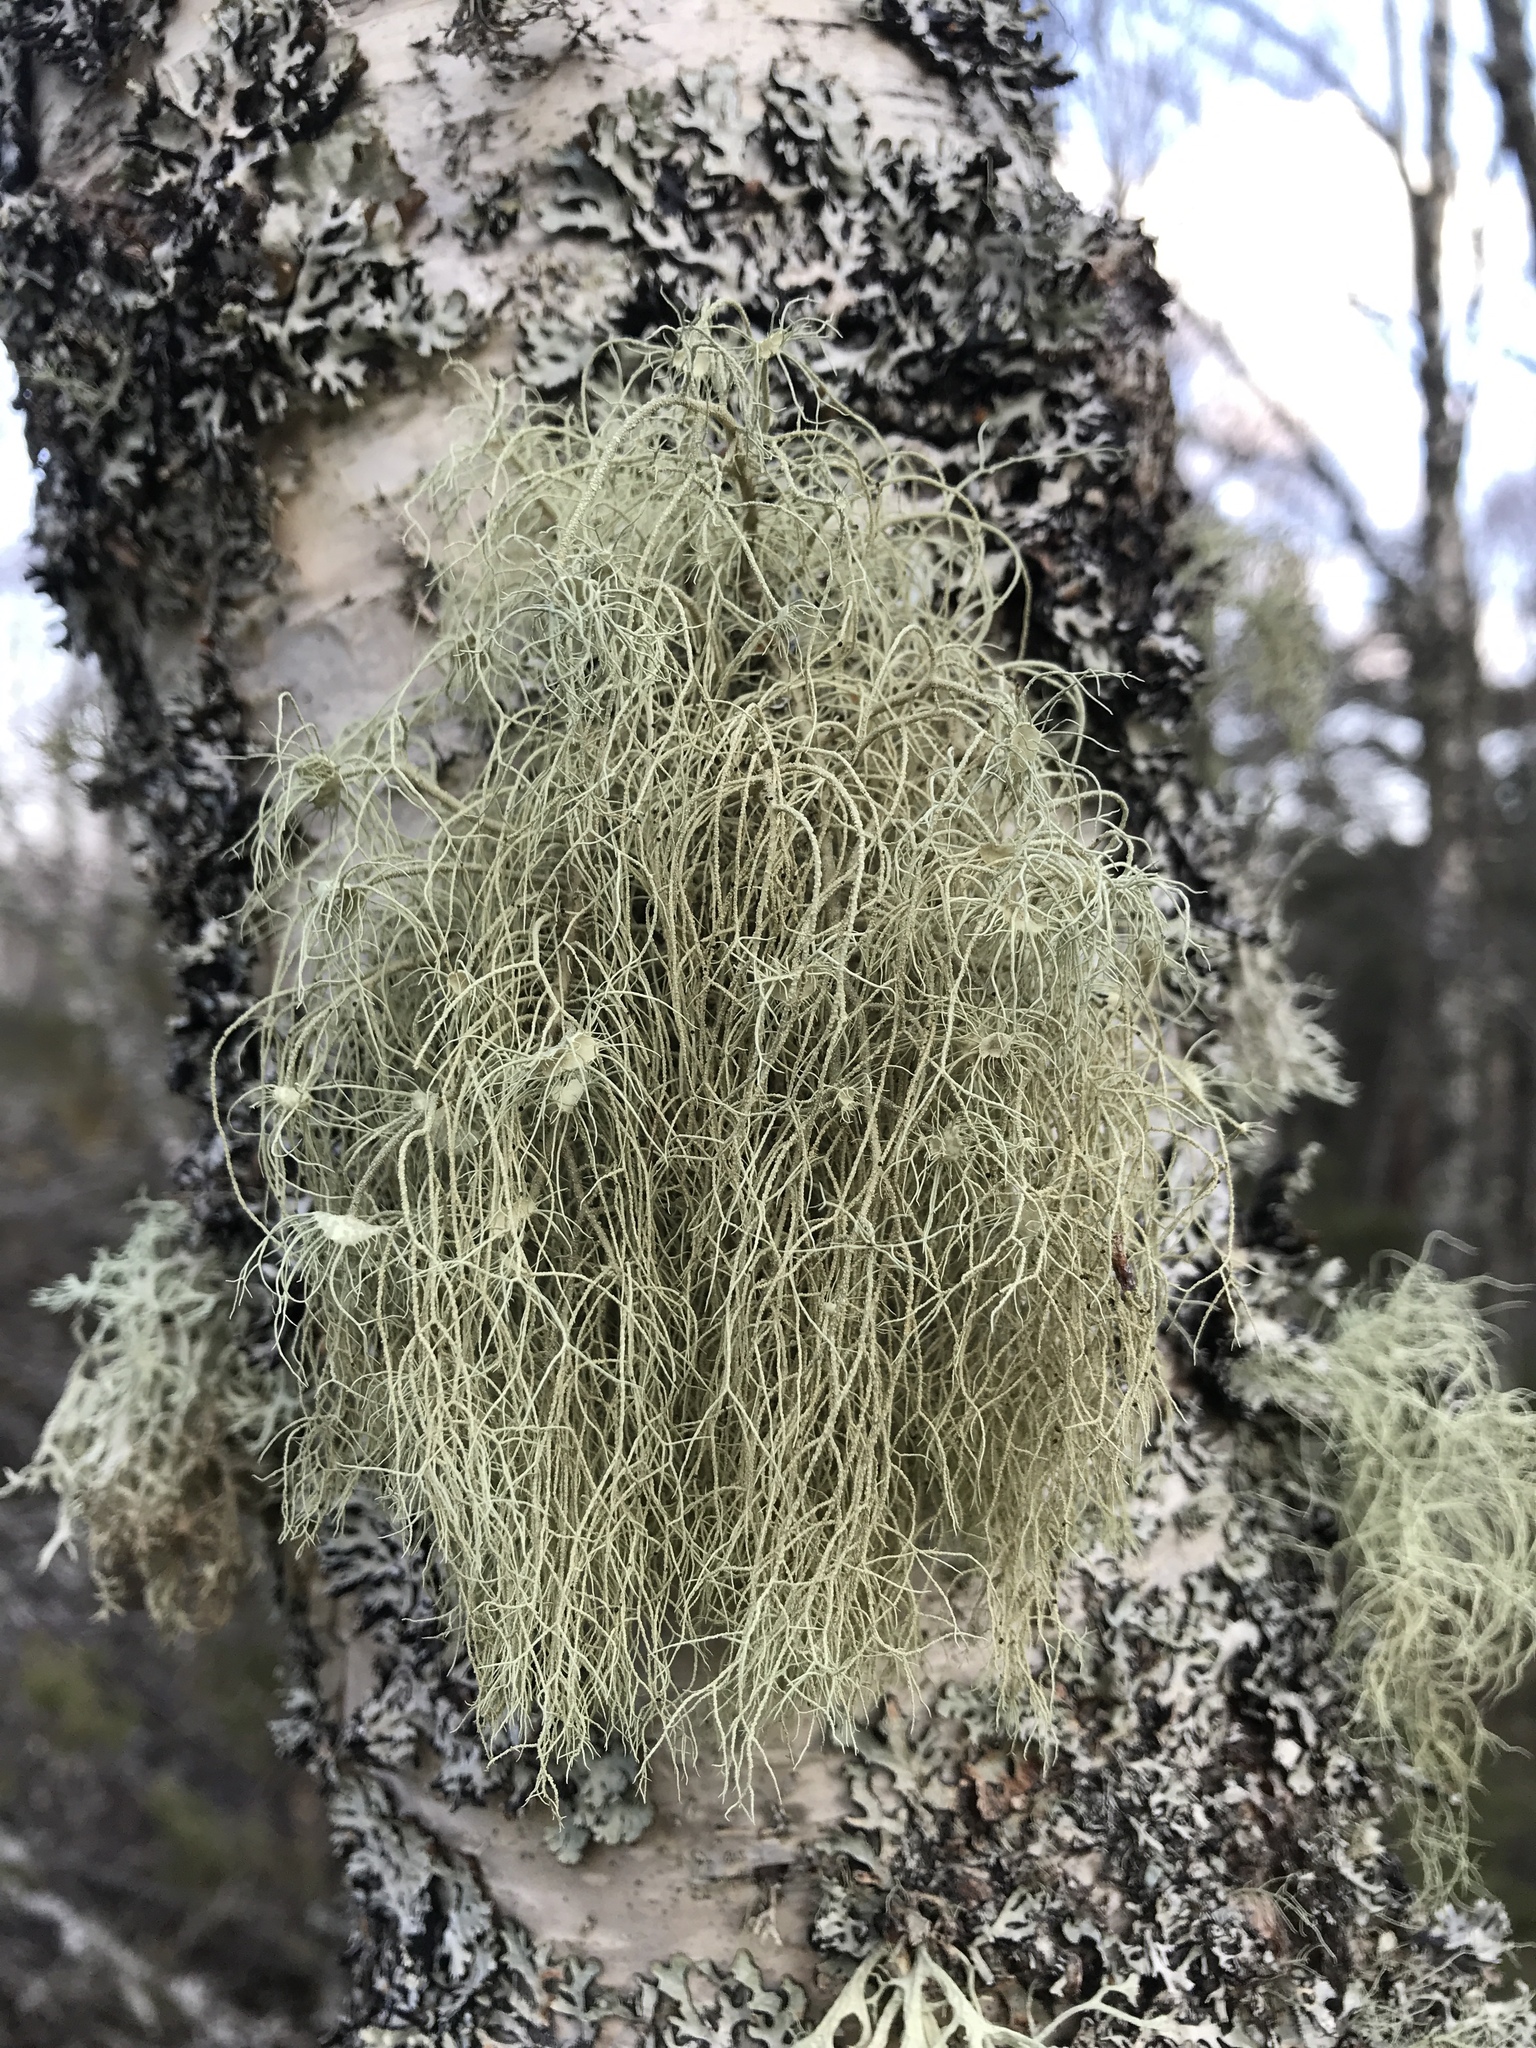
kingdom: Fungi
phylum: Ascomycota
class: Lecanoromycetes
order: Lecanorales
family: Parmeliaceae
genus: Usnea
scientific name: Usnea
